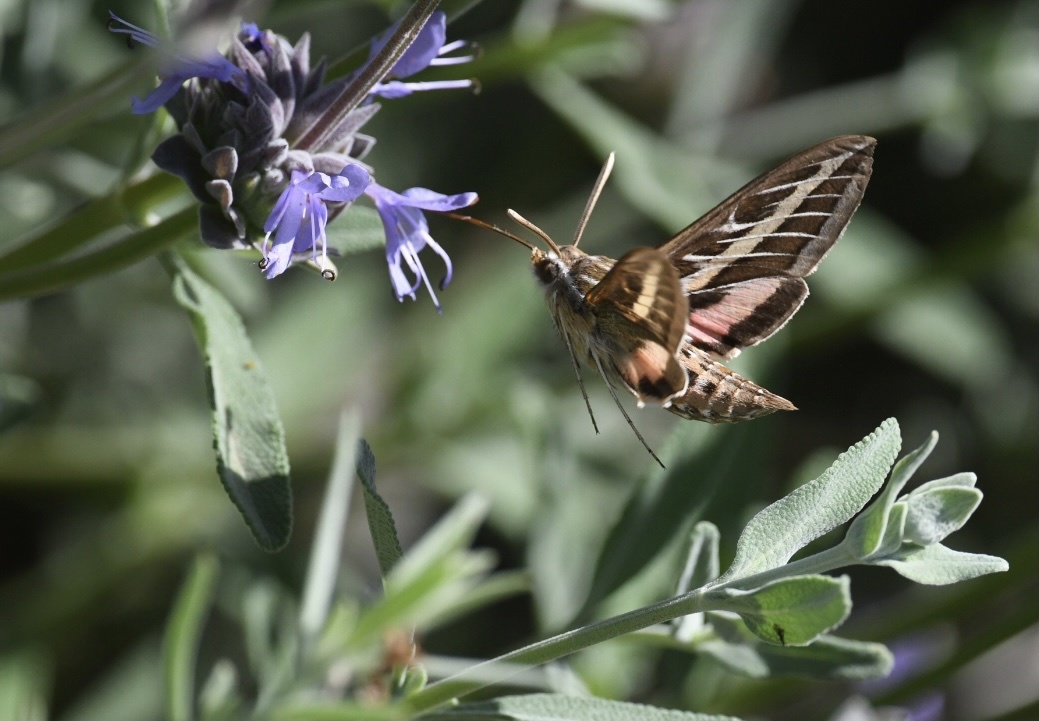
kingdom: Animalia
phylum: Arthropoda
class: Insecta
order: Lepidoptera
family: Sphingidae
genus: Hyles
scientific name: Hyles lineata
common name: White-lined sphinx
